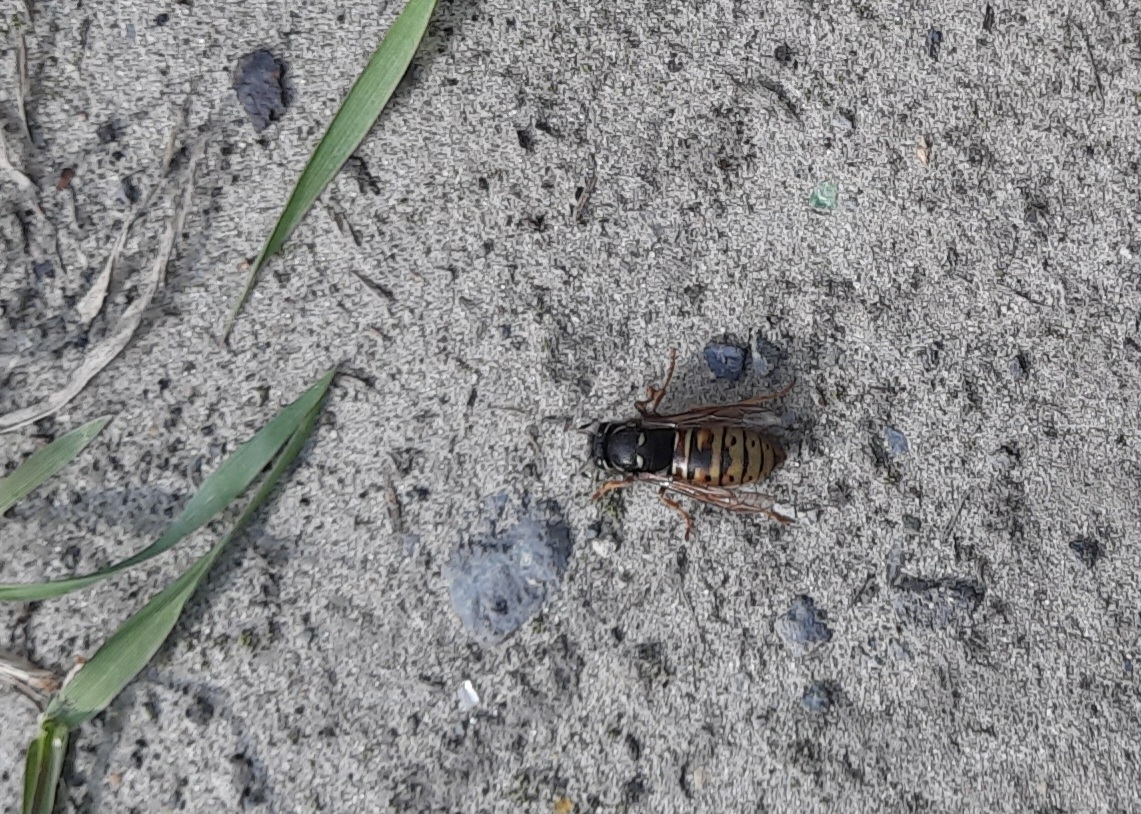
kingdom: Animalia
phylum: Arthropoda
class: Insecta
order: Hymenoptera
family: Vespidae
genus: Vespula
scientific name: Vespula rufa
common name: Red wasp
